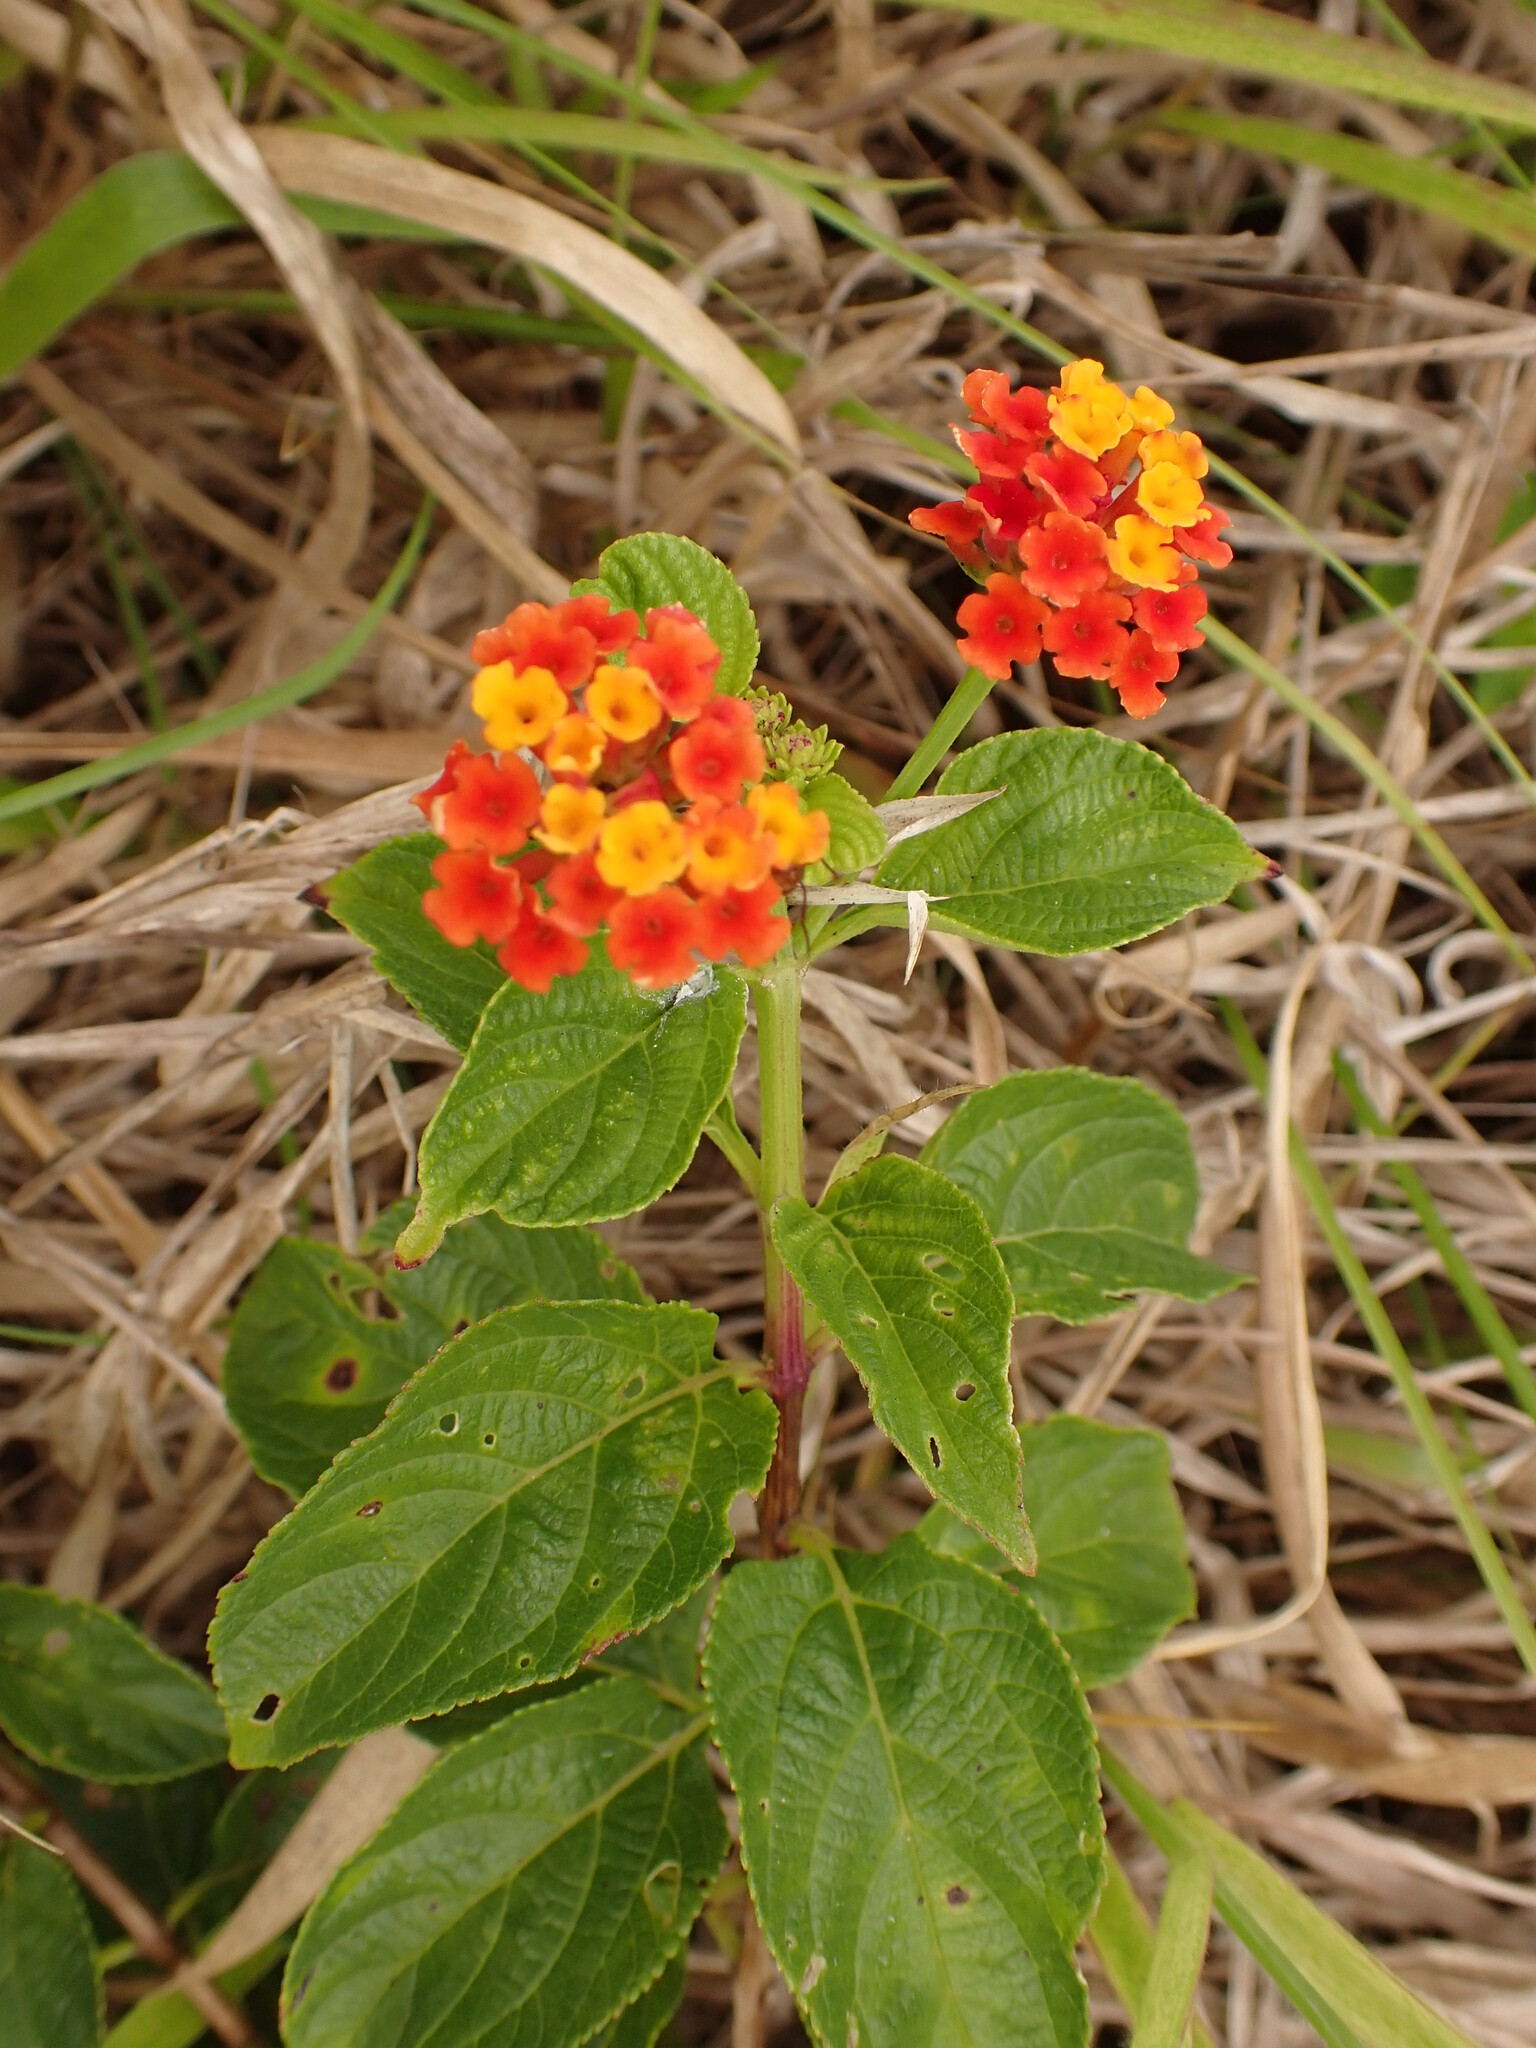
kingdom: Plantae
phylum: Tracheophyta
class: Magnoliopsida
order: Lamiales
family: Verbenaceae
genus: Lantana
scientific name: Lantana camara
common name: Lantana
